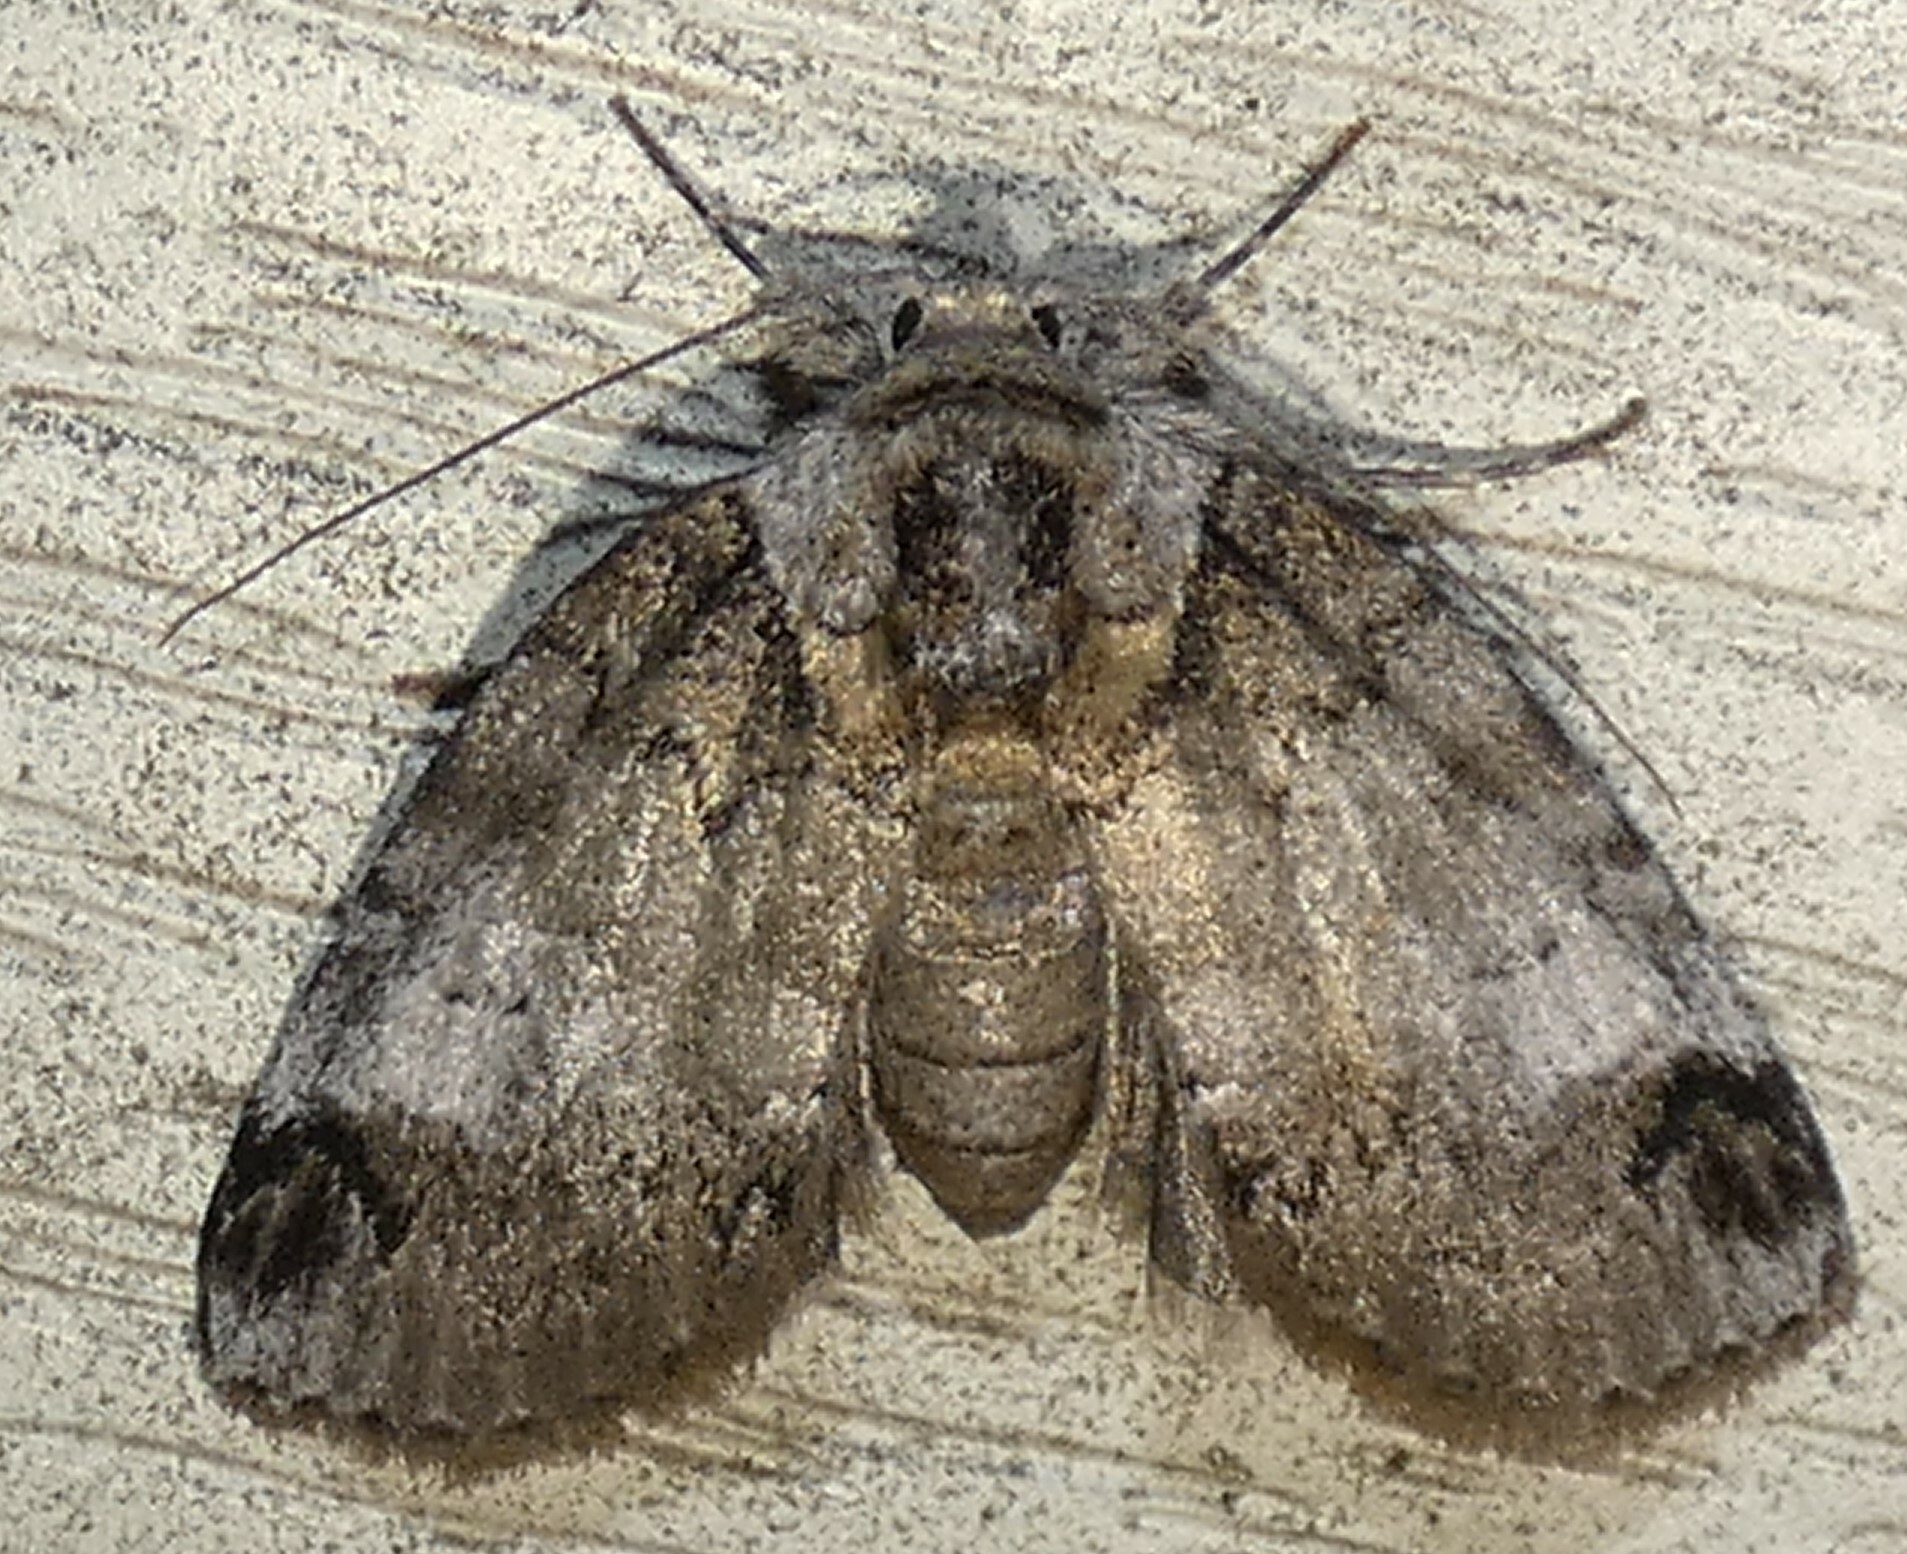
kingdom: Animalia
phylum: Arthropoda
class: Insecta
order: Lepidoptera
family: Nolidae
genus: Baileya
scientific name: Baileya dormitans
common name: Sleeping baileya moth
